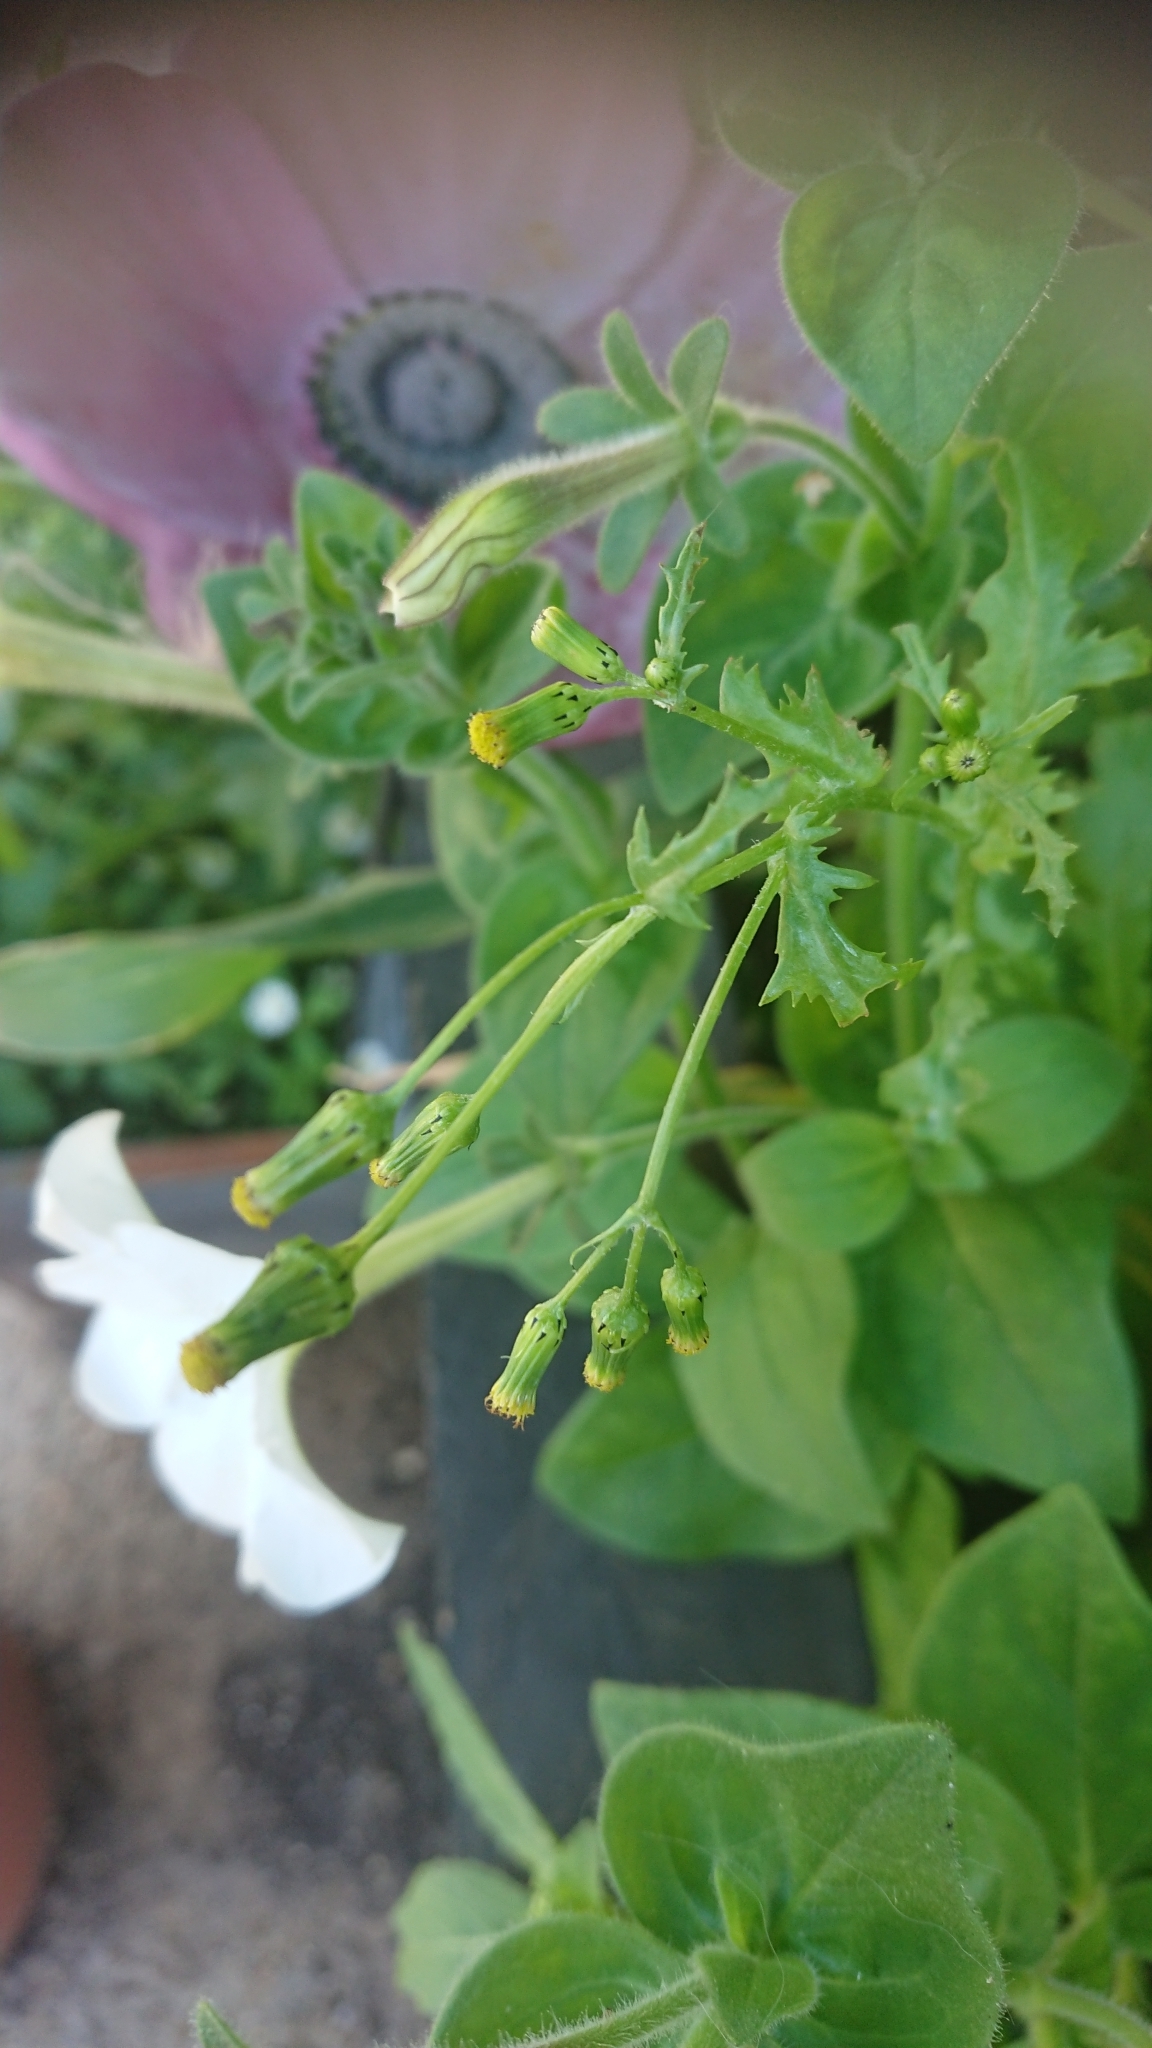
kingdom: Plantae
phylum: Tracheophyta
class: Magnoliopsida
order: Asterales
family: Asteraceae
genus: Senecio
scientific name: Senecio vulgaris
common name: Old-man-in-the-spring
